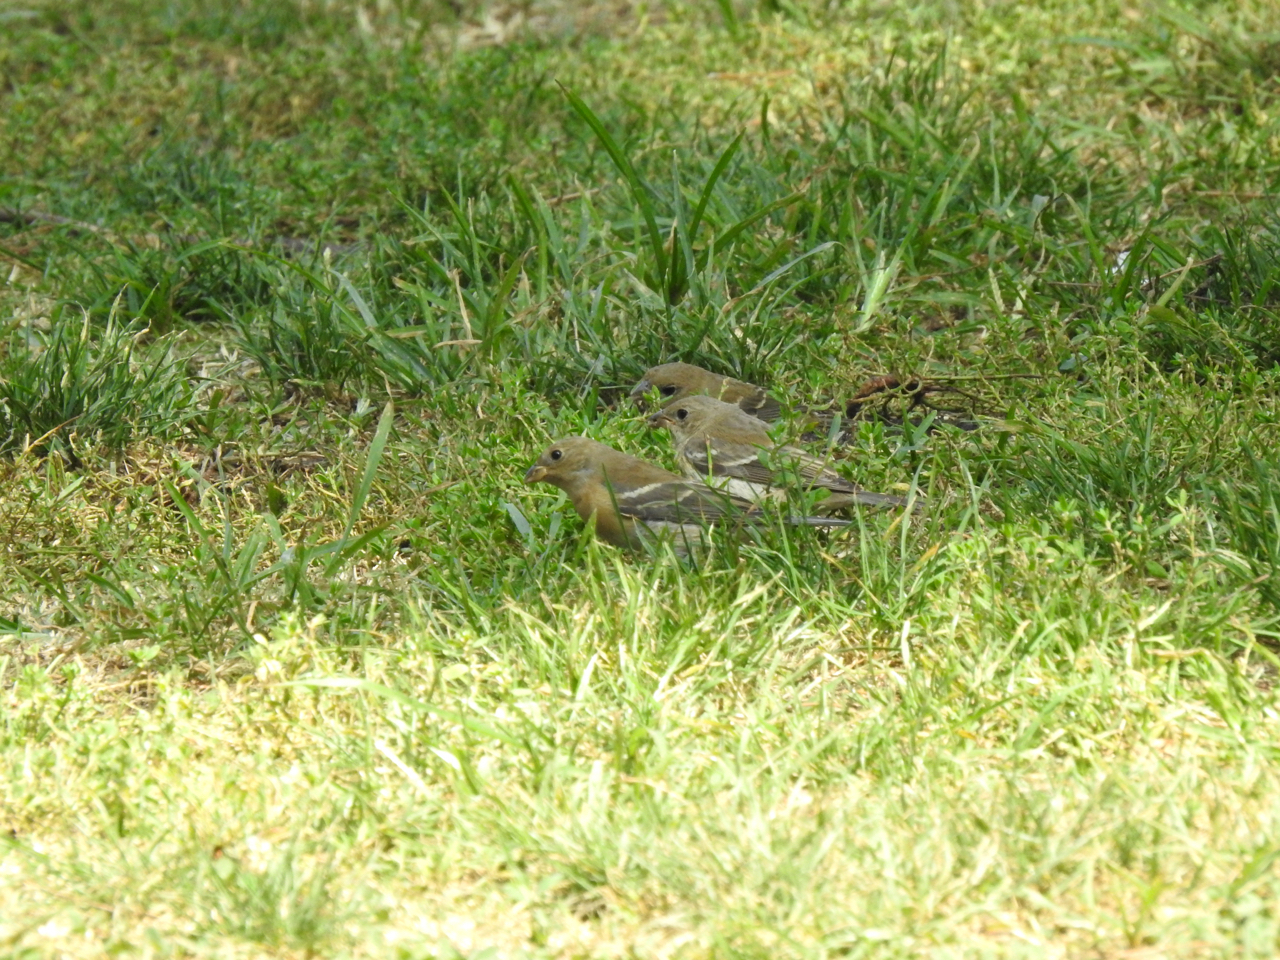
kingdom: Animalia
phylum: Chordata
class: Aves
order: Passeriformes
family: Cardinalidae
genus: Passerina
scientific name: Passerina amoena
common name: Lazuli bunting
